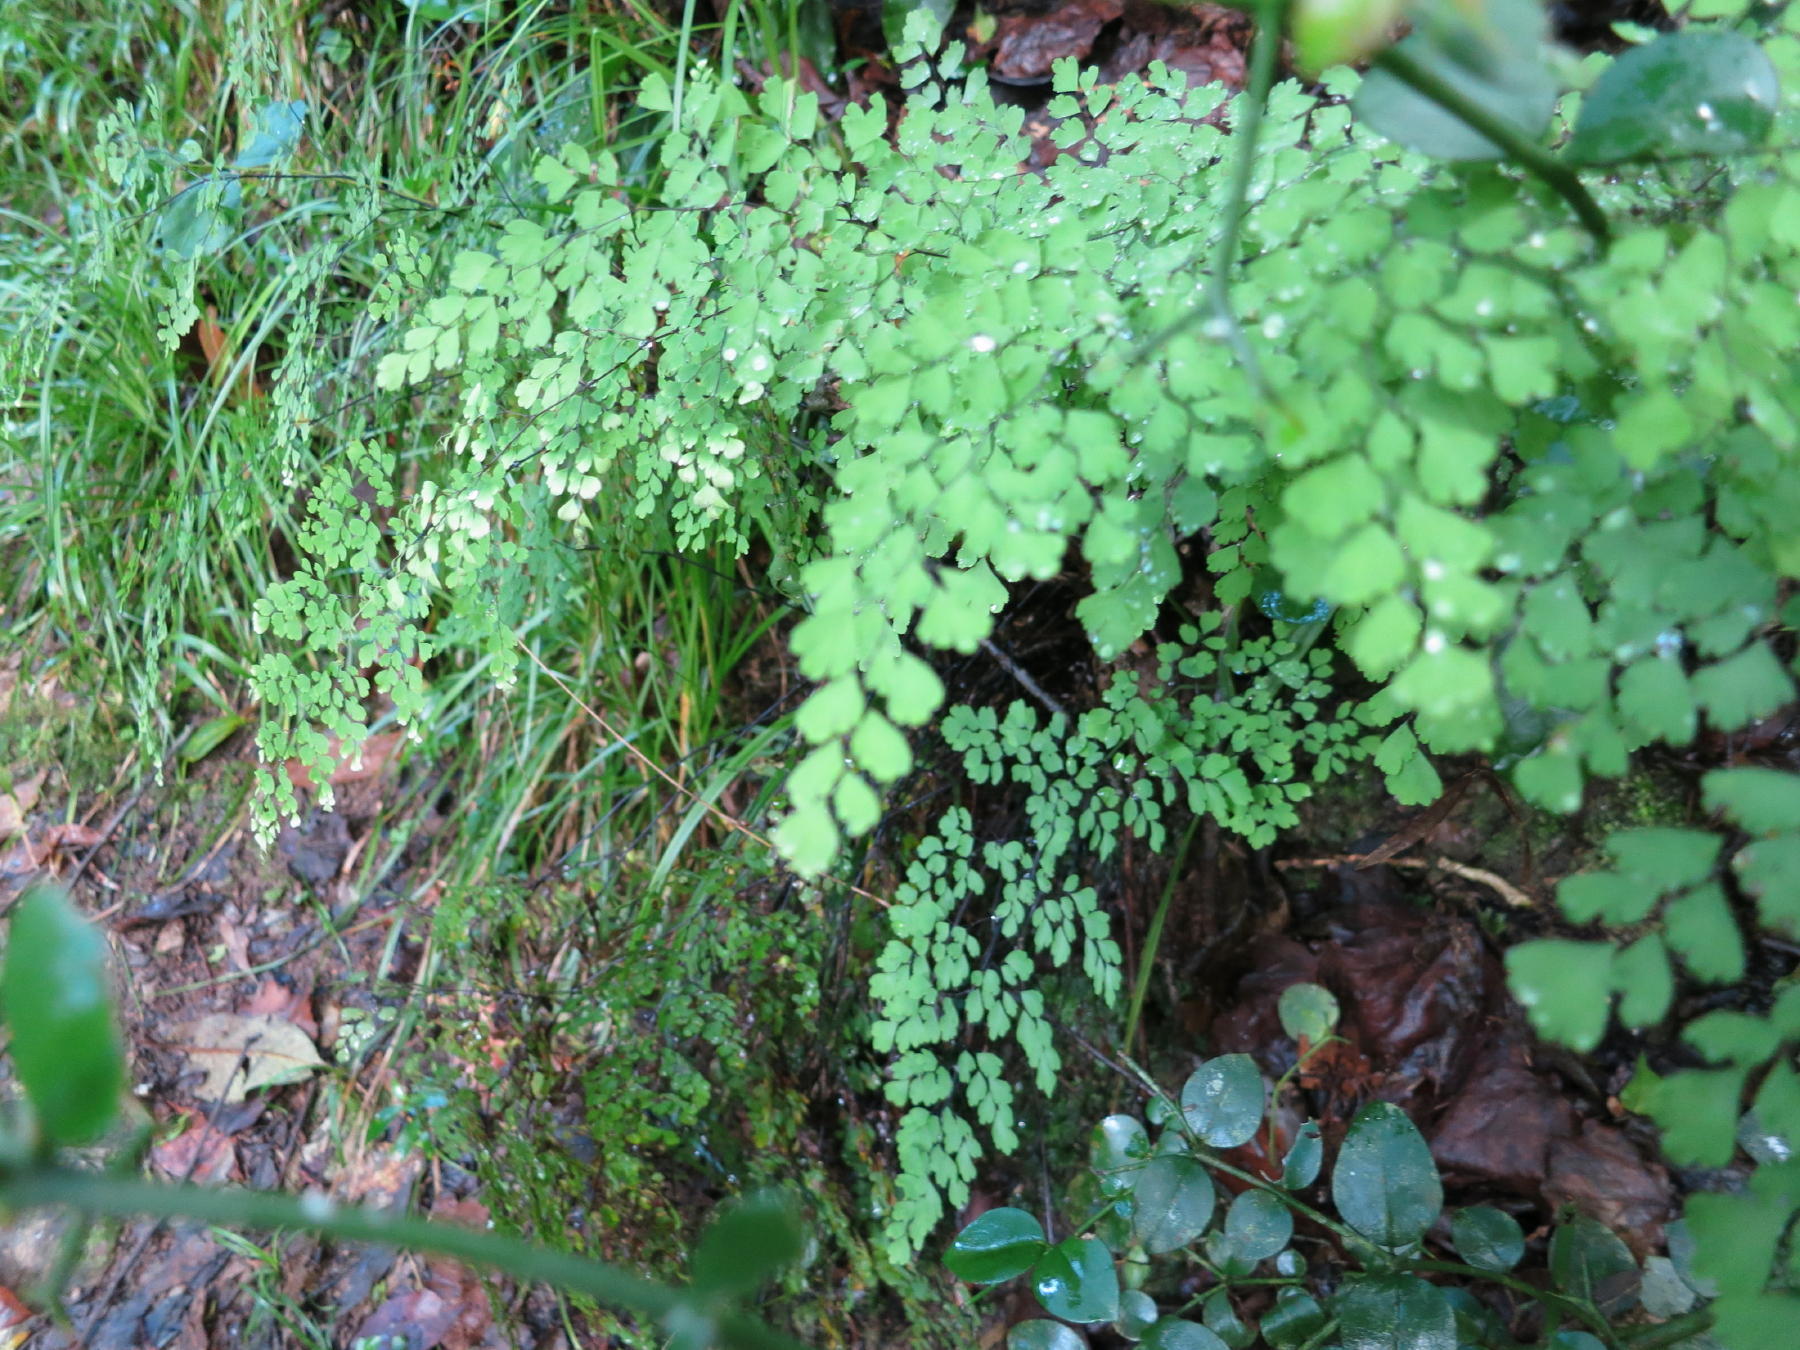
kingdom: Plantae
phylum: Tracheophyta
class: Polypodiopsida
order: Polypodiales
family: Pteridaceae
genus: Adiantum
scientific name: Adiantum aethiopicum
